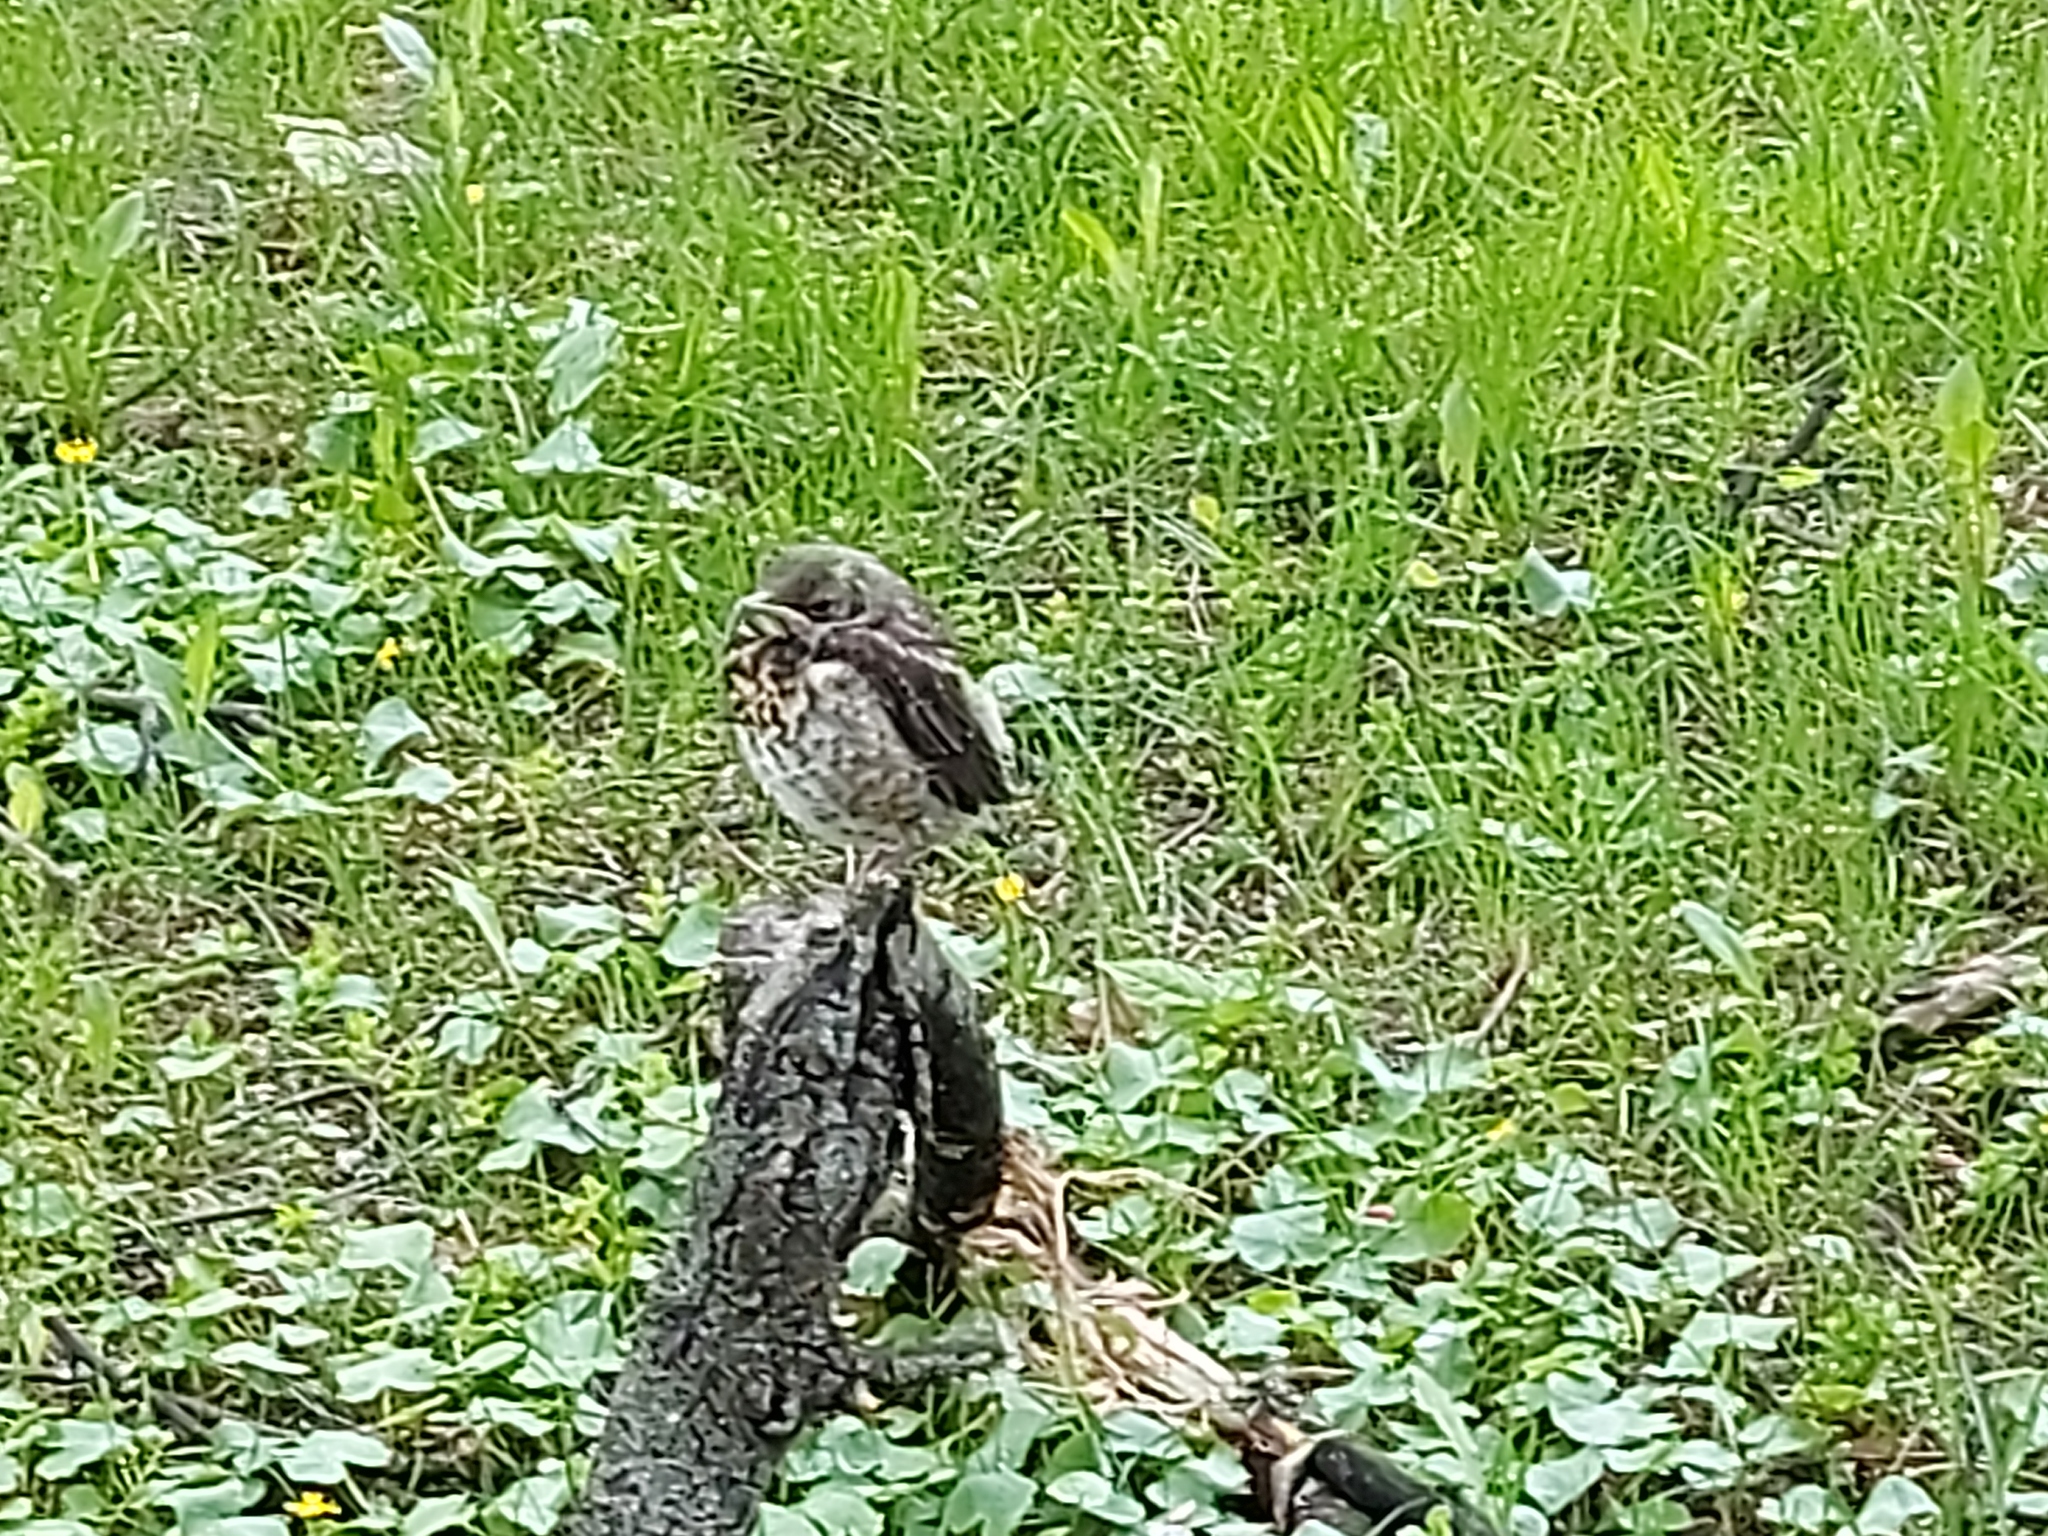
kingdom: Animalia
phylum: Chordata
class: Aves
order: Passeriformes
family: Turdidae
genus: Turdus
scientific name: Turdus pilaris
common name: Fieldfare
